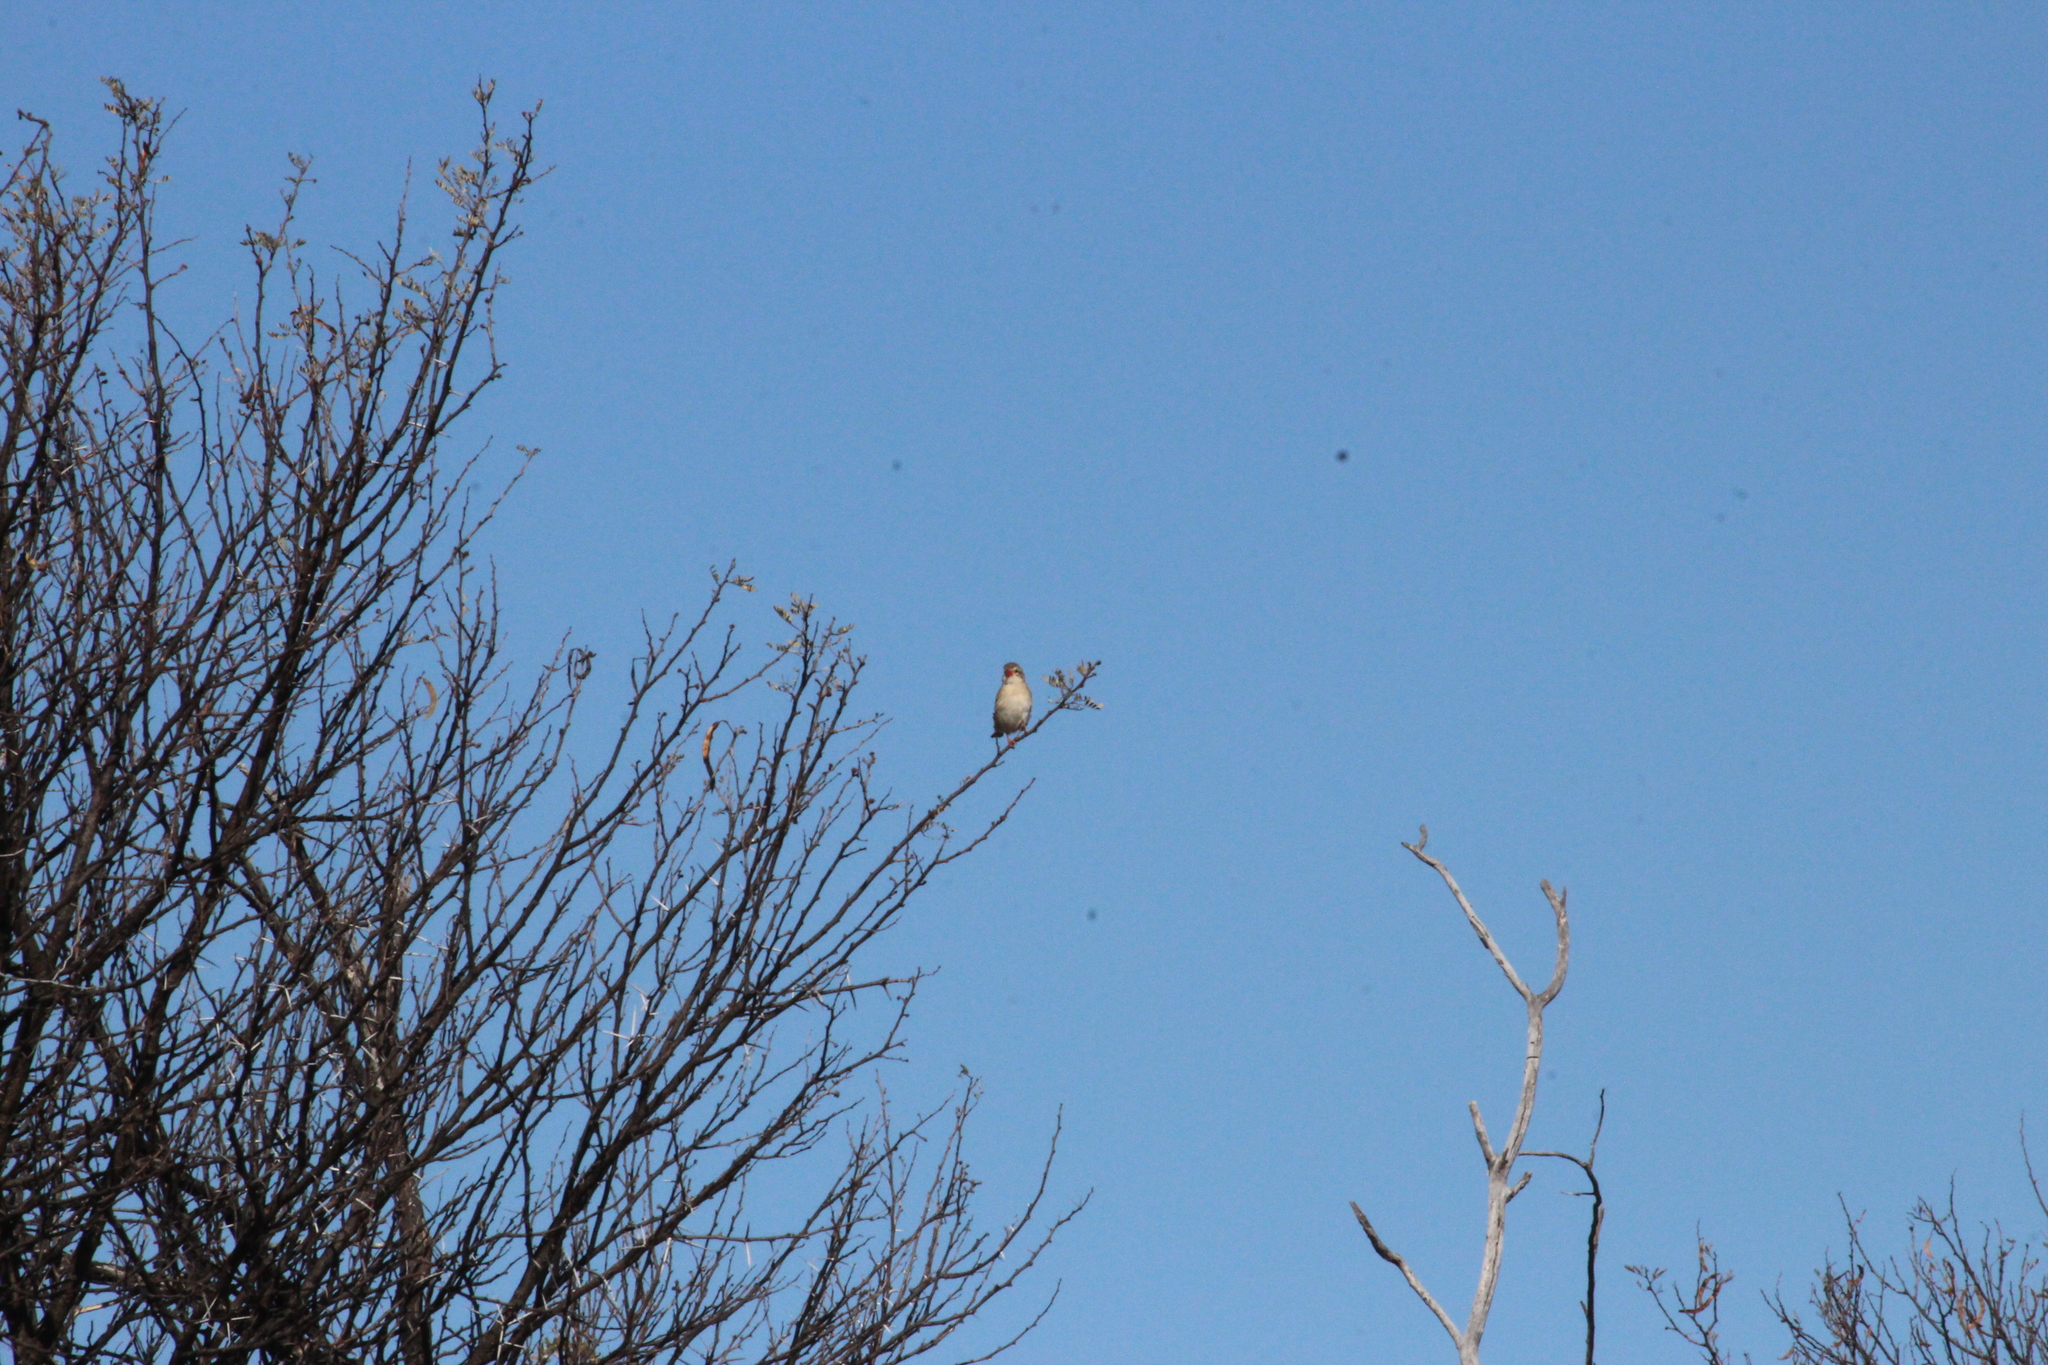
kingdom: Animalia
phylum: Chordata
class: Aves
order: Passeriformes
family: Ploceidae
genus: Quelea
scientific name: Quelea quelea
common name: Red-billed quelea
